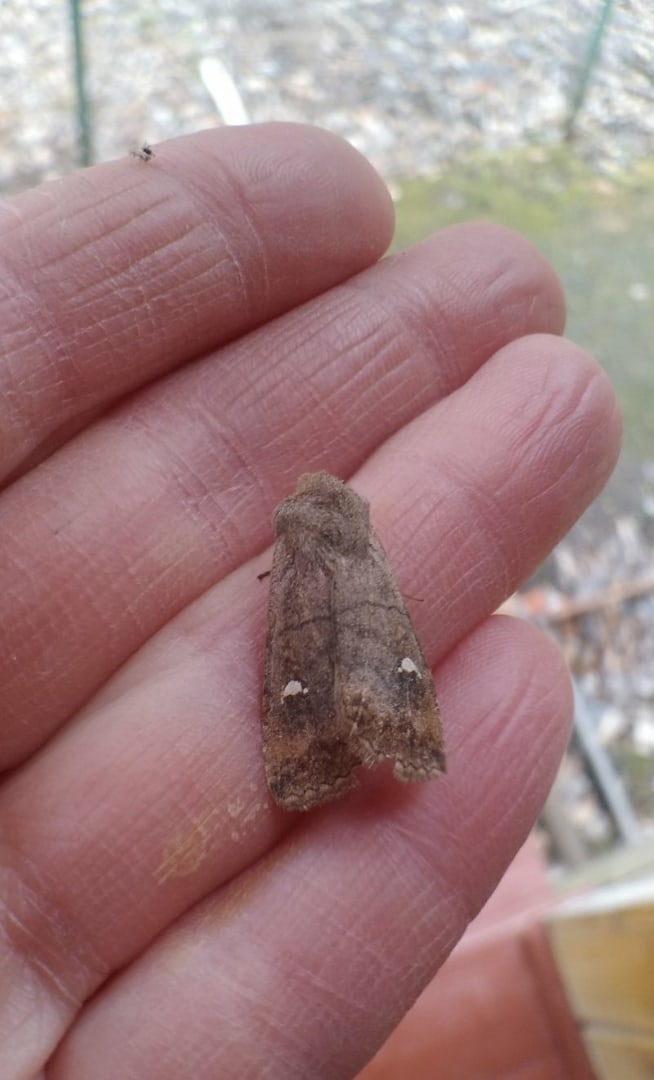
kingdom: Animalia
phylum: Arthropoda
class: Insecta
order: Lepidoptera
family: Noctuidae
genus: Eupsilia
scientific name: Eupsilia transversa
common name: Satellite
